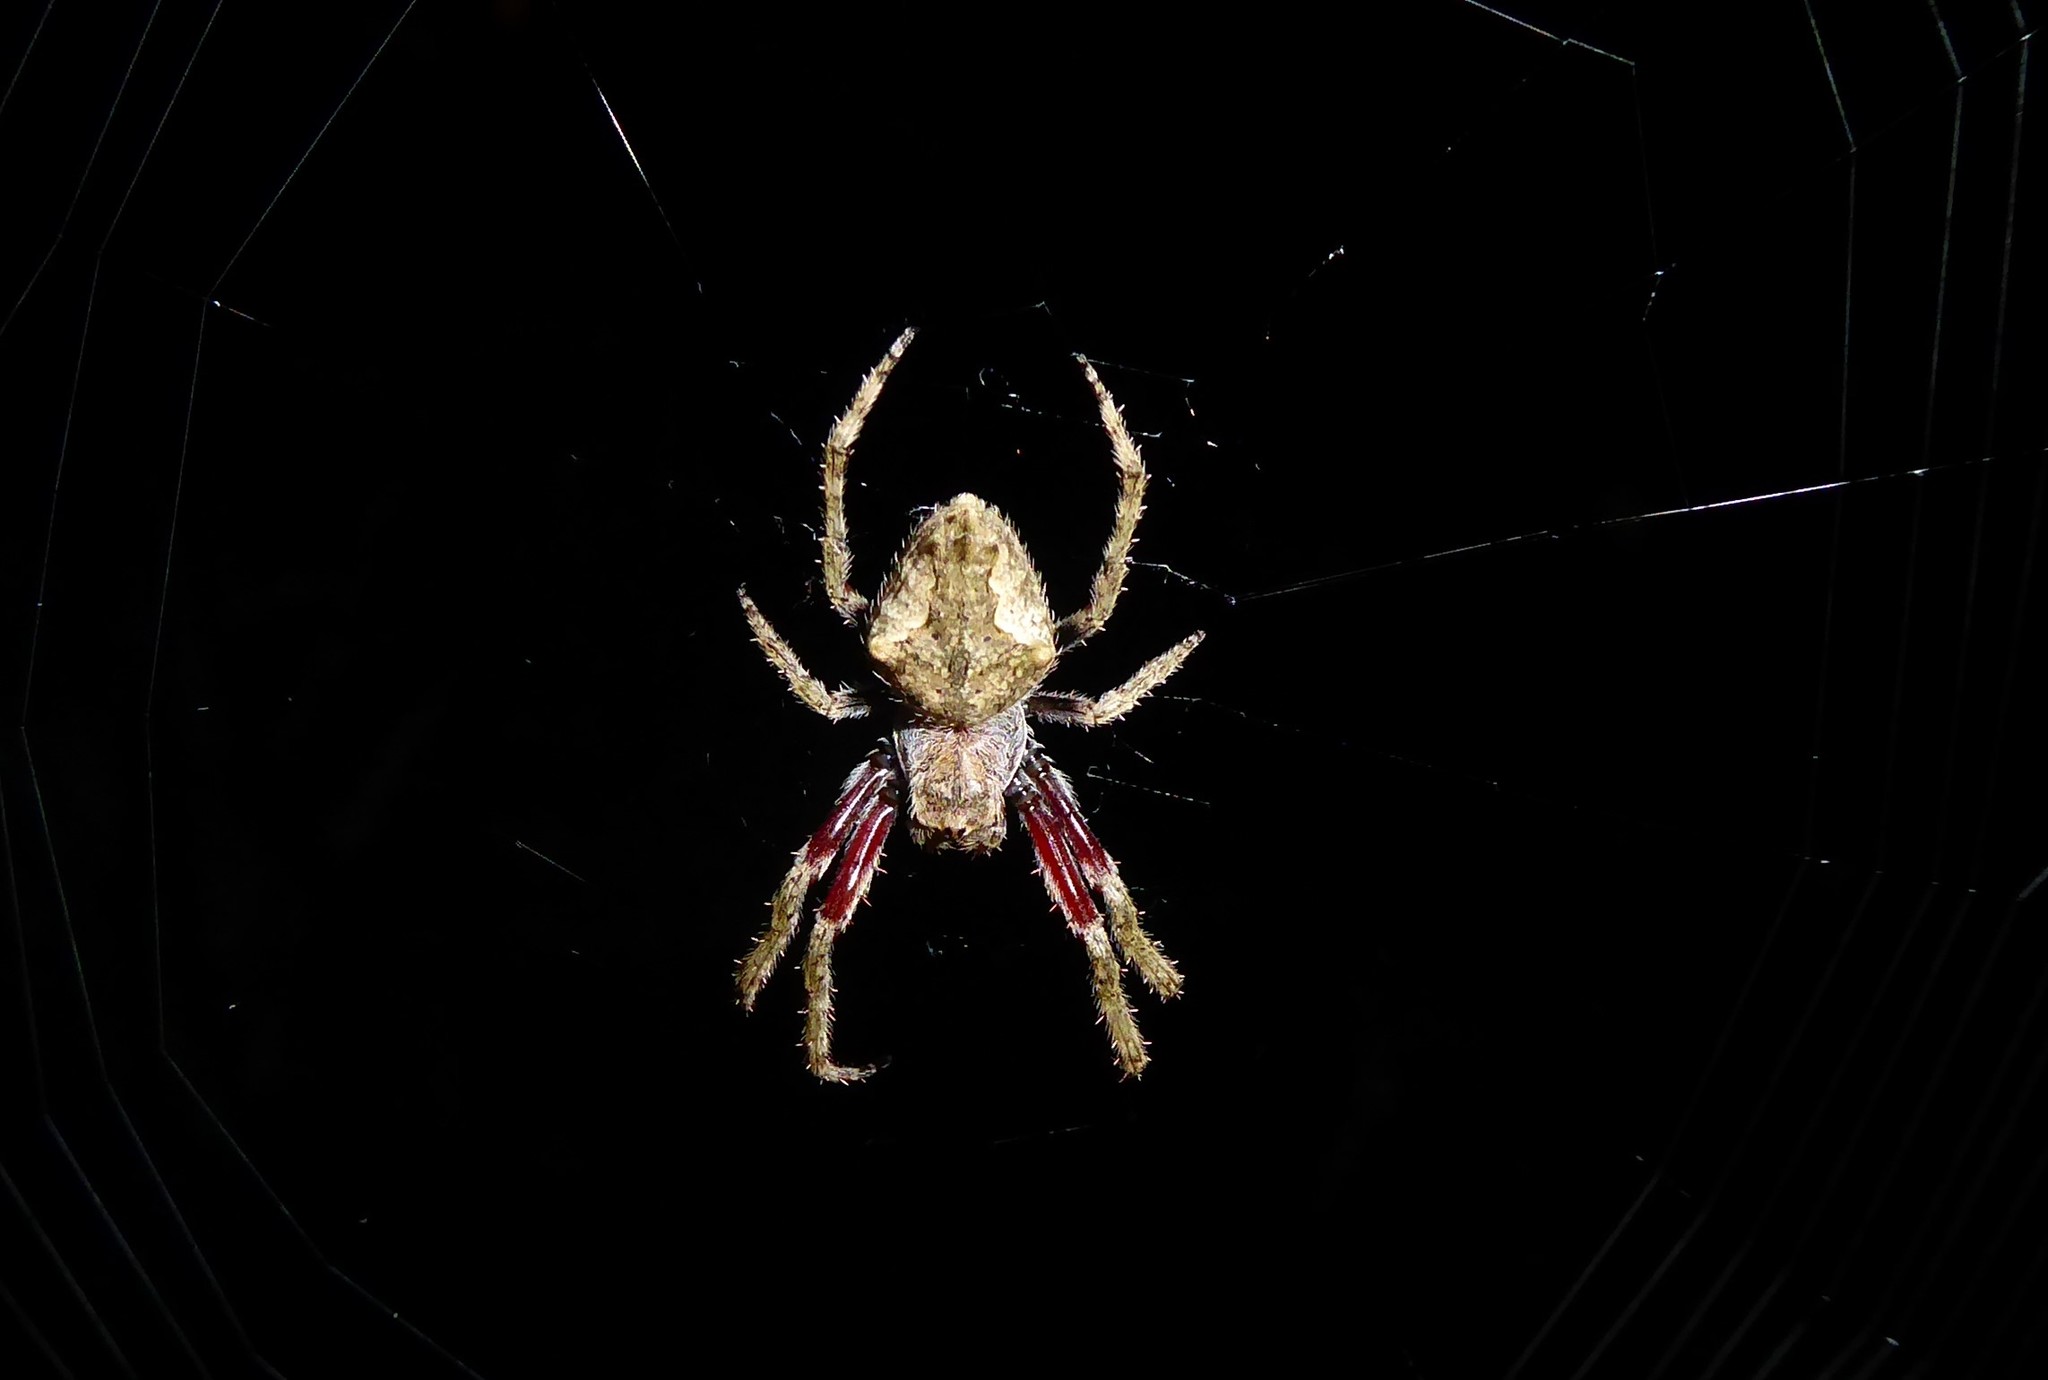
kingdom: Animalia
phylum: Arthropoda
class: Arachnida
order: Araneae
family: Araneidae
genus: Eriophora
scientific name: Eriophora pustulosa
